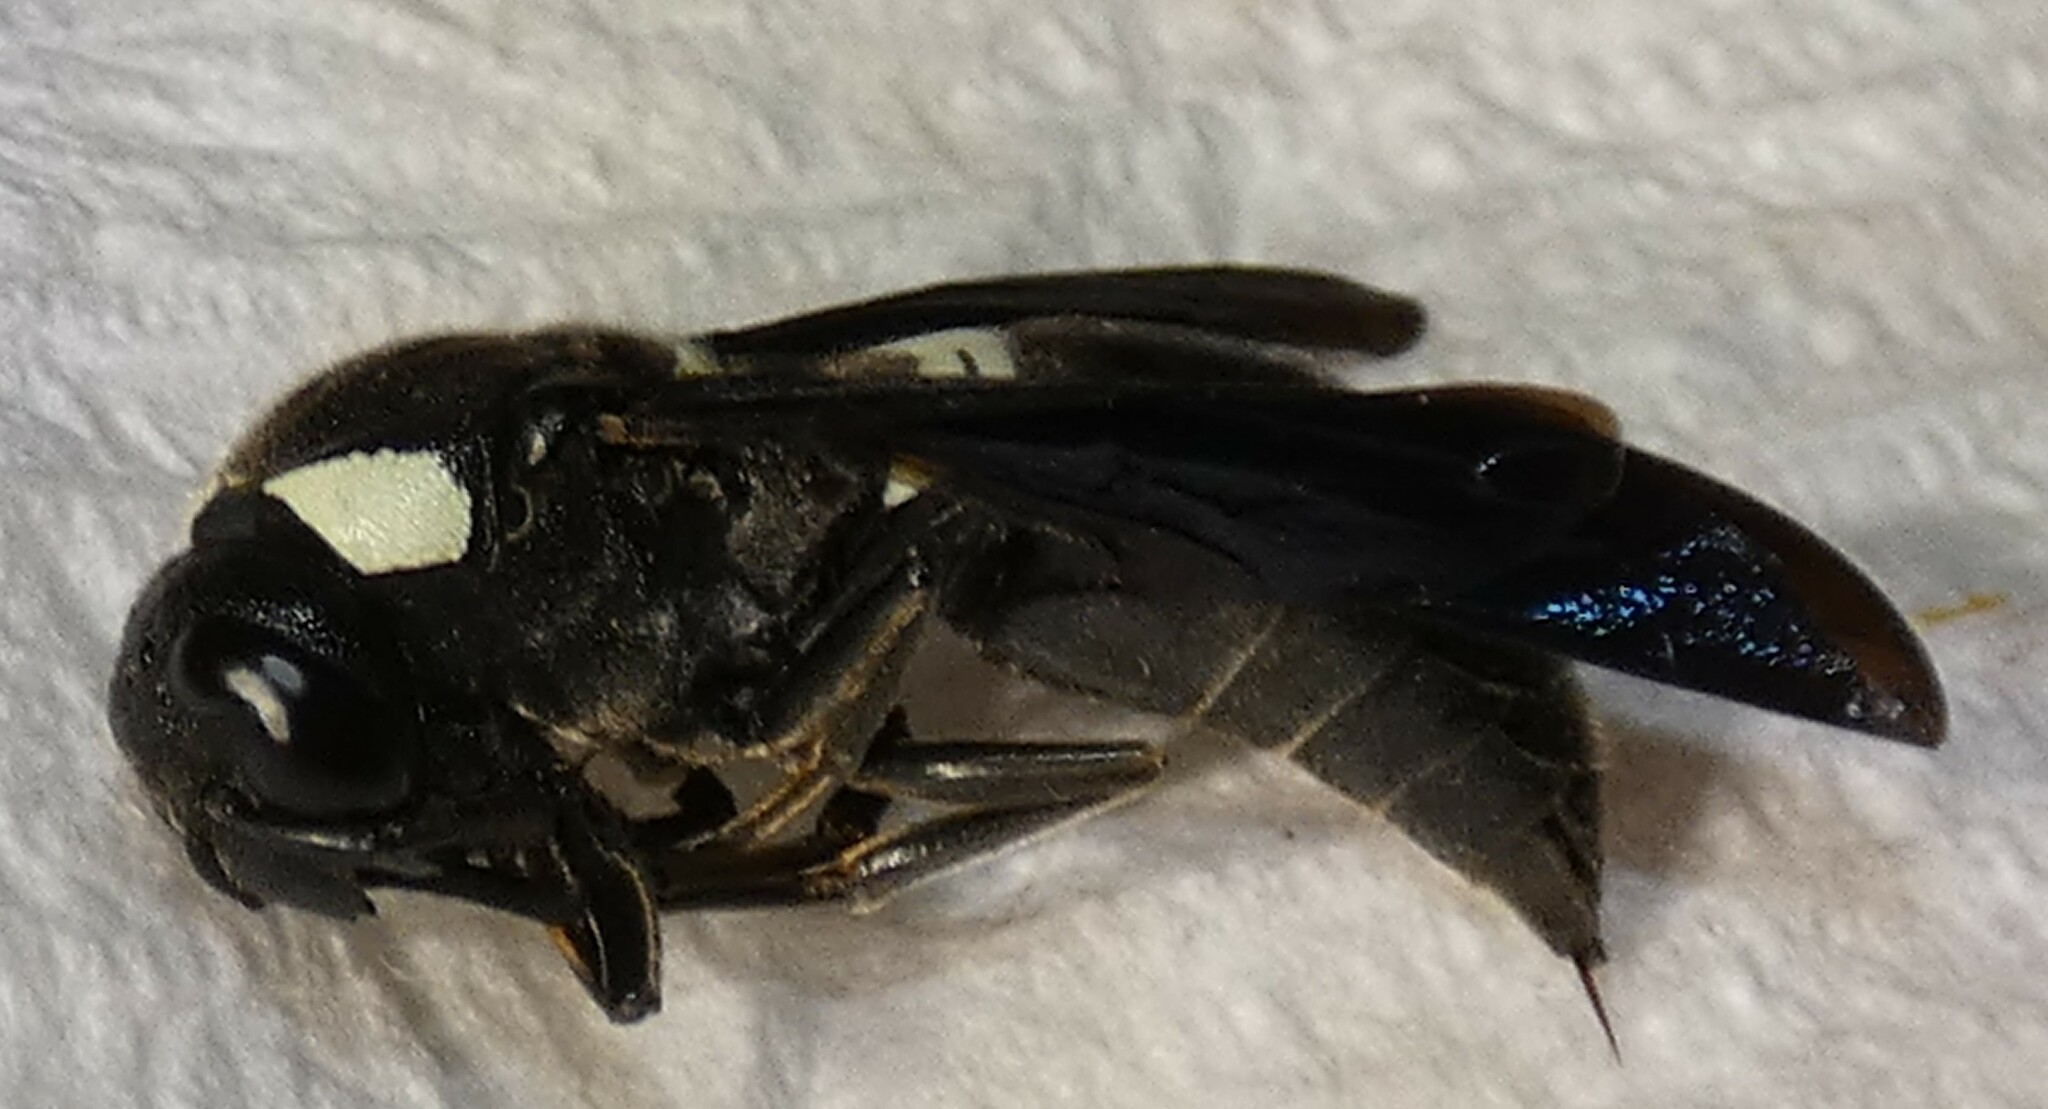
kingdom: Animalia
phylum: Arthropoda
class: Insecta
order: Hymenoptera
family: Eumenidae
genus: Monobia
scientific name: Monobia quadridens
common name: Four-toothed mason wasp
